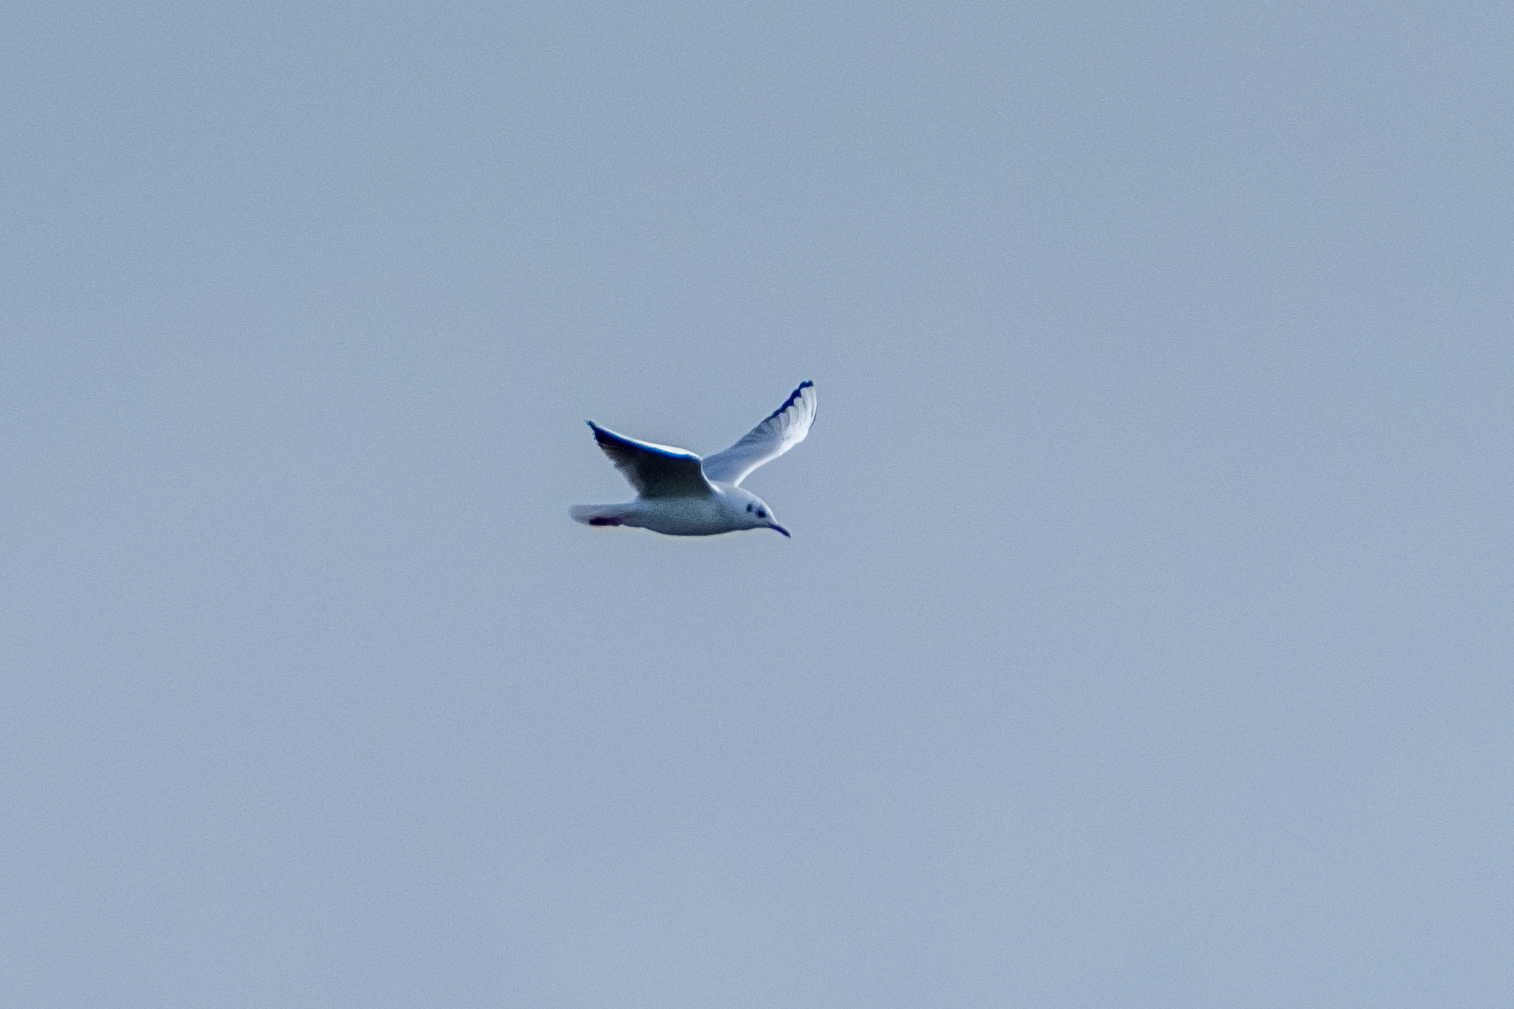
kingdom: Animalia
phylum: Chordata
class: Aves
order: Charadriiformes
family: Laridae
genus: Chroicocephalus
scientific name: Chroicocephalus ridibundus
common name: Black-headed gull
